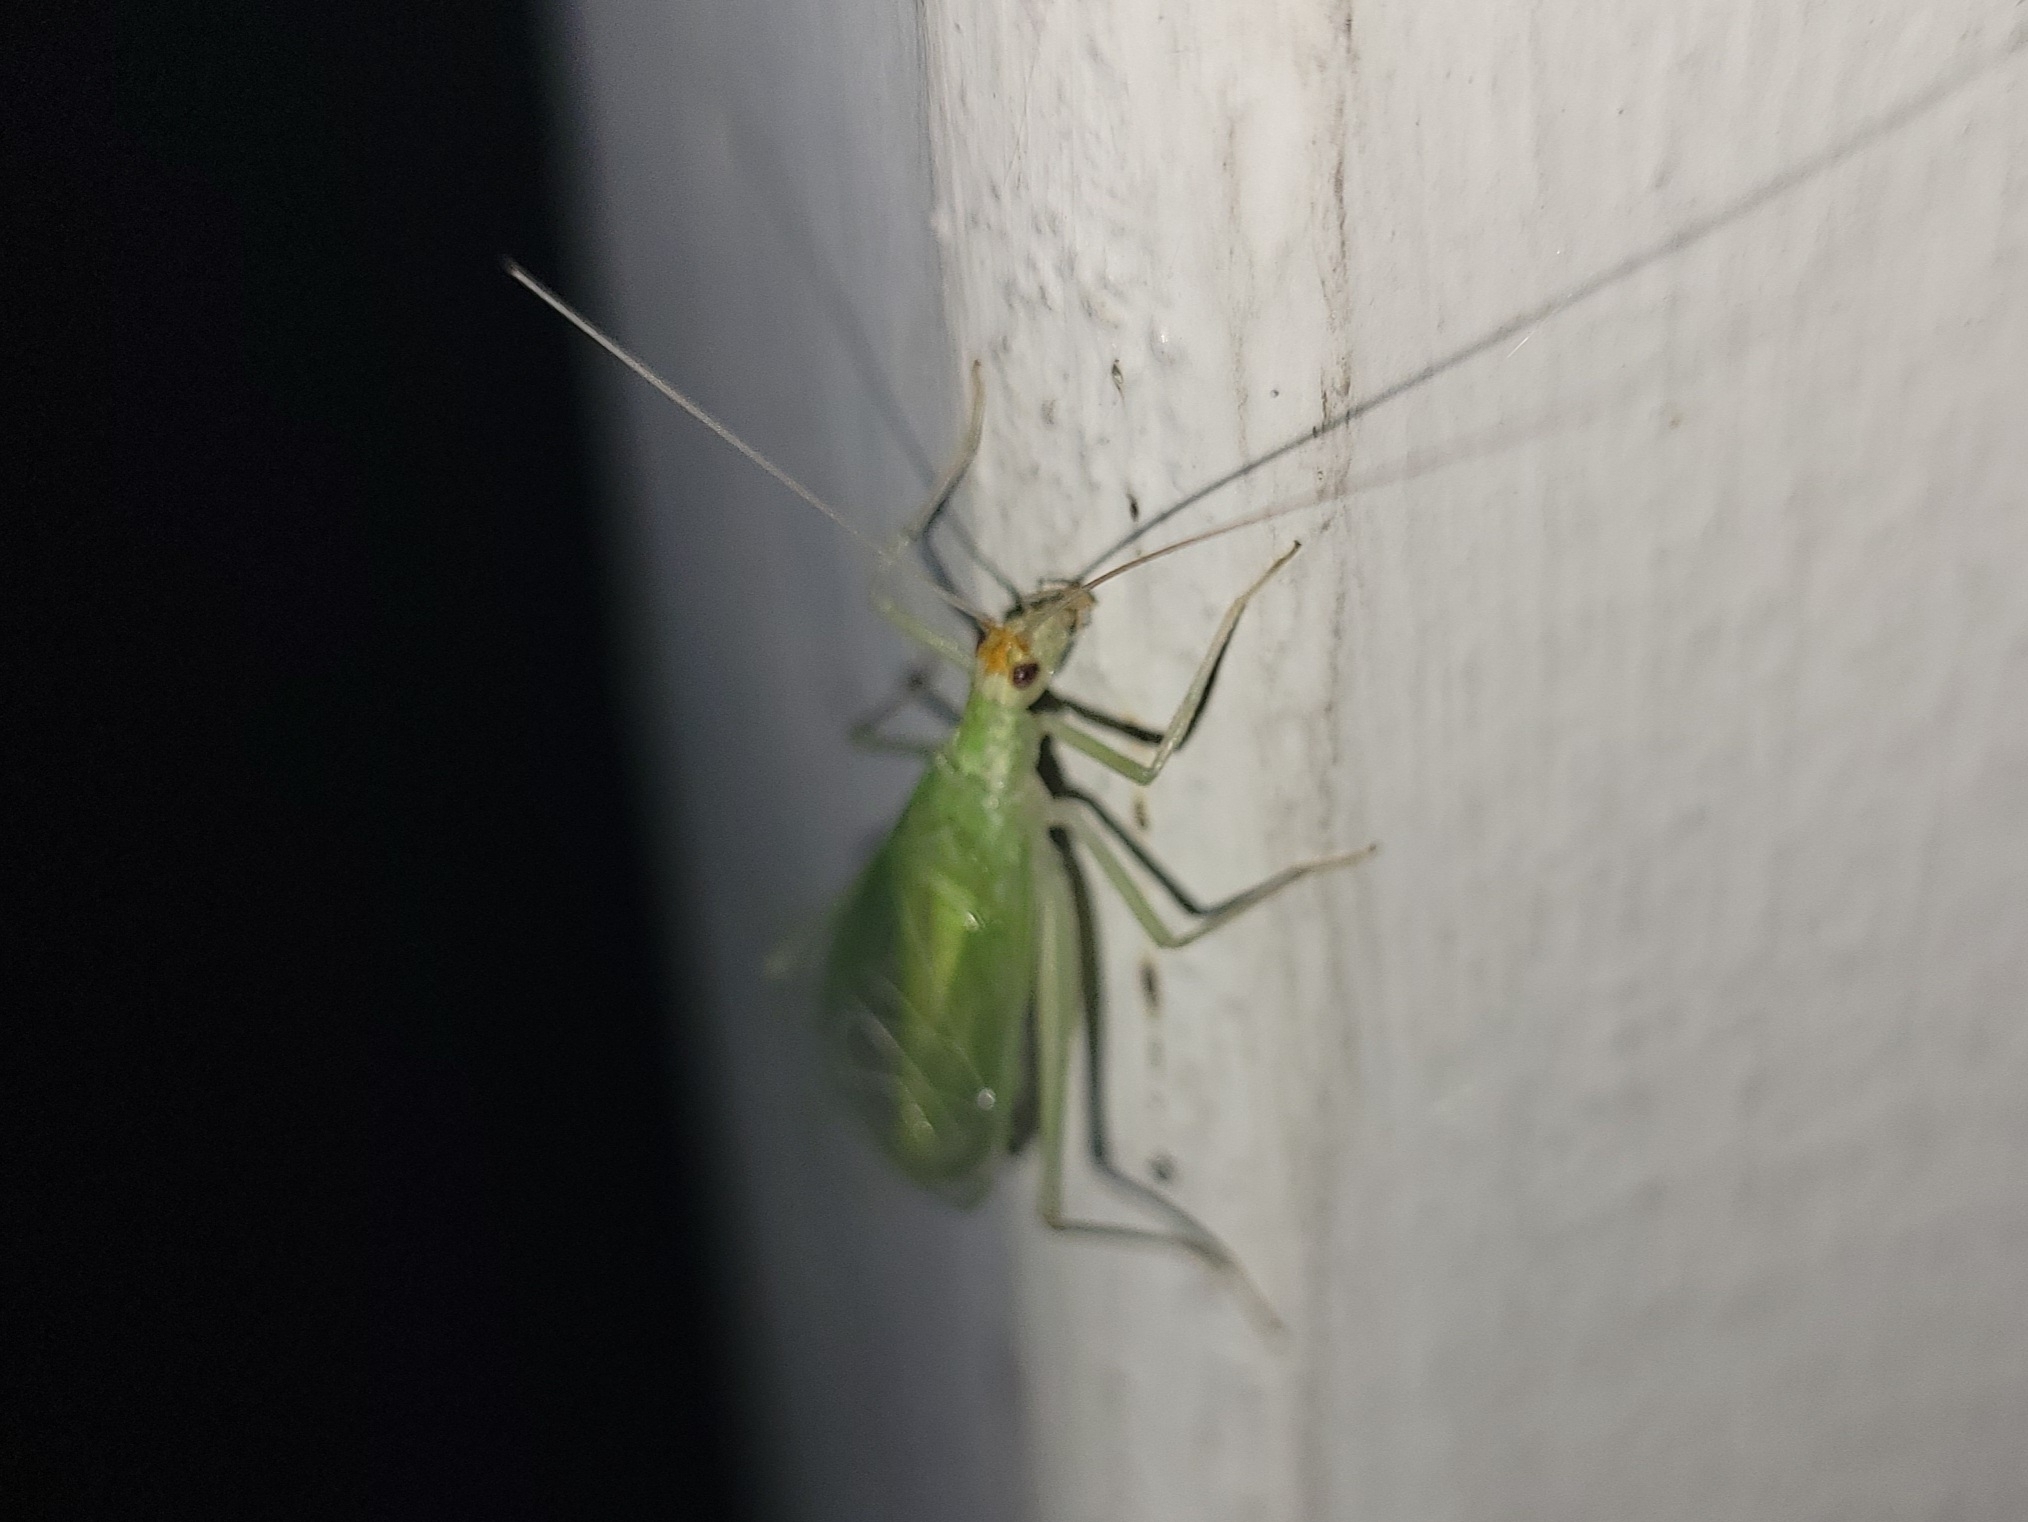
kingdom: Animalia
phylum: Arthropoda
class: Insecta
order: Orthoptera
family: Gryllidae
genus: Oecanthus
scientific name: Oecanthus fultoni
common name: Snowy tree cricket
